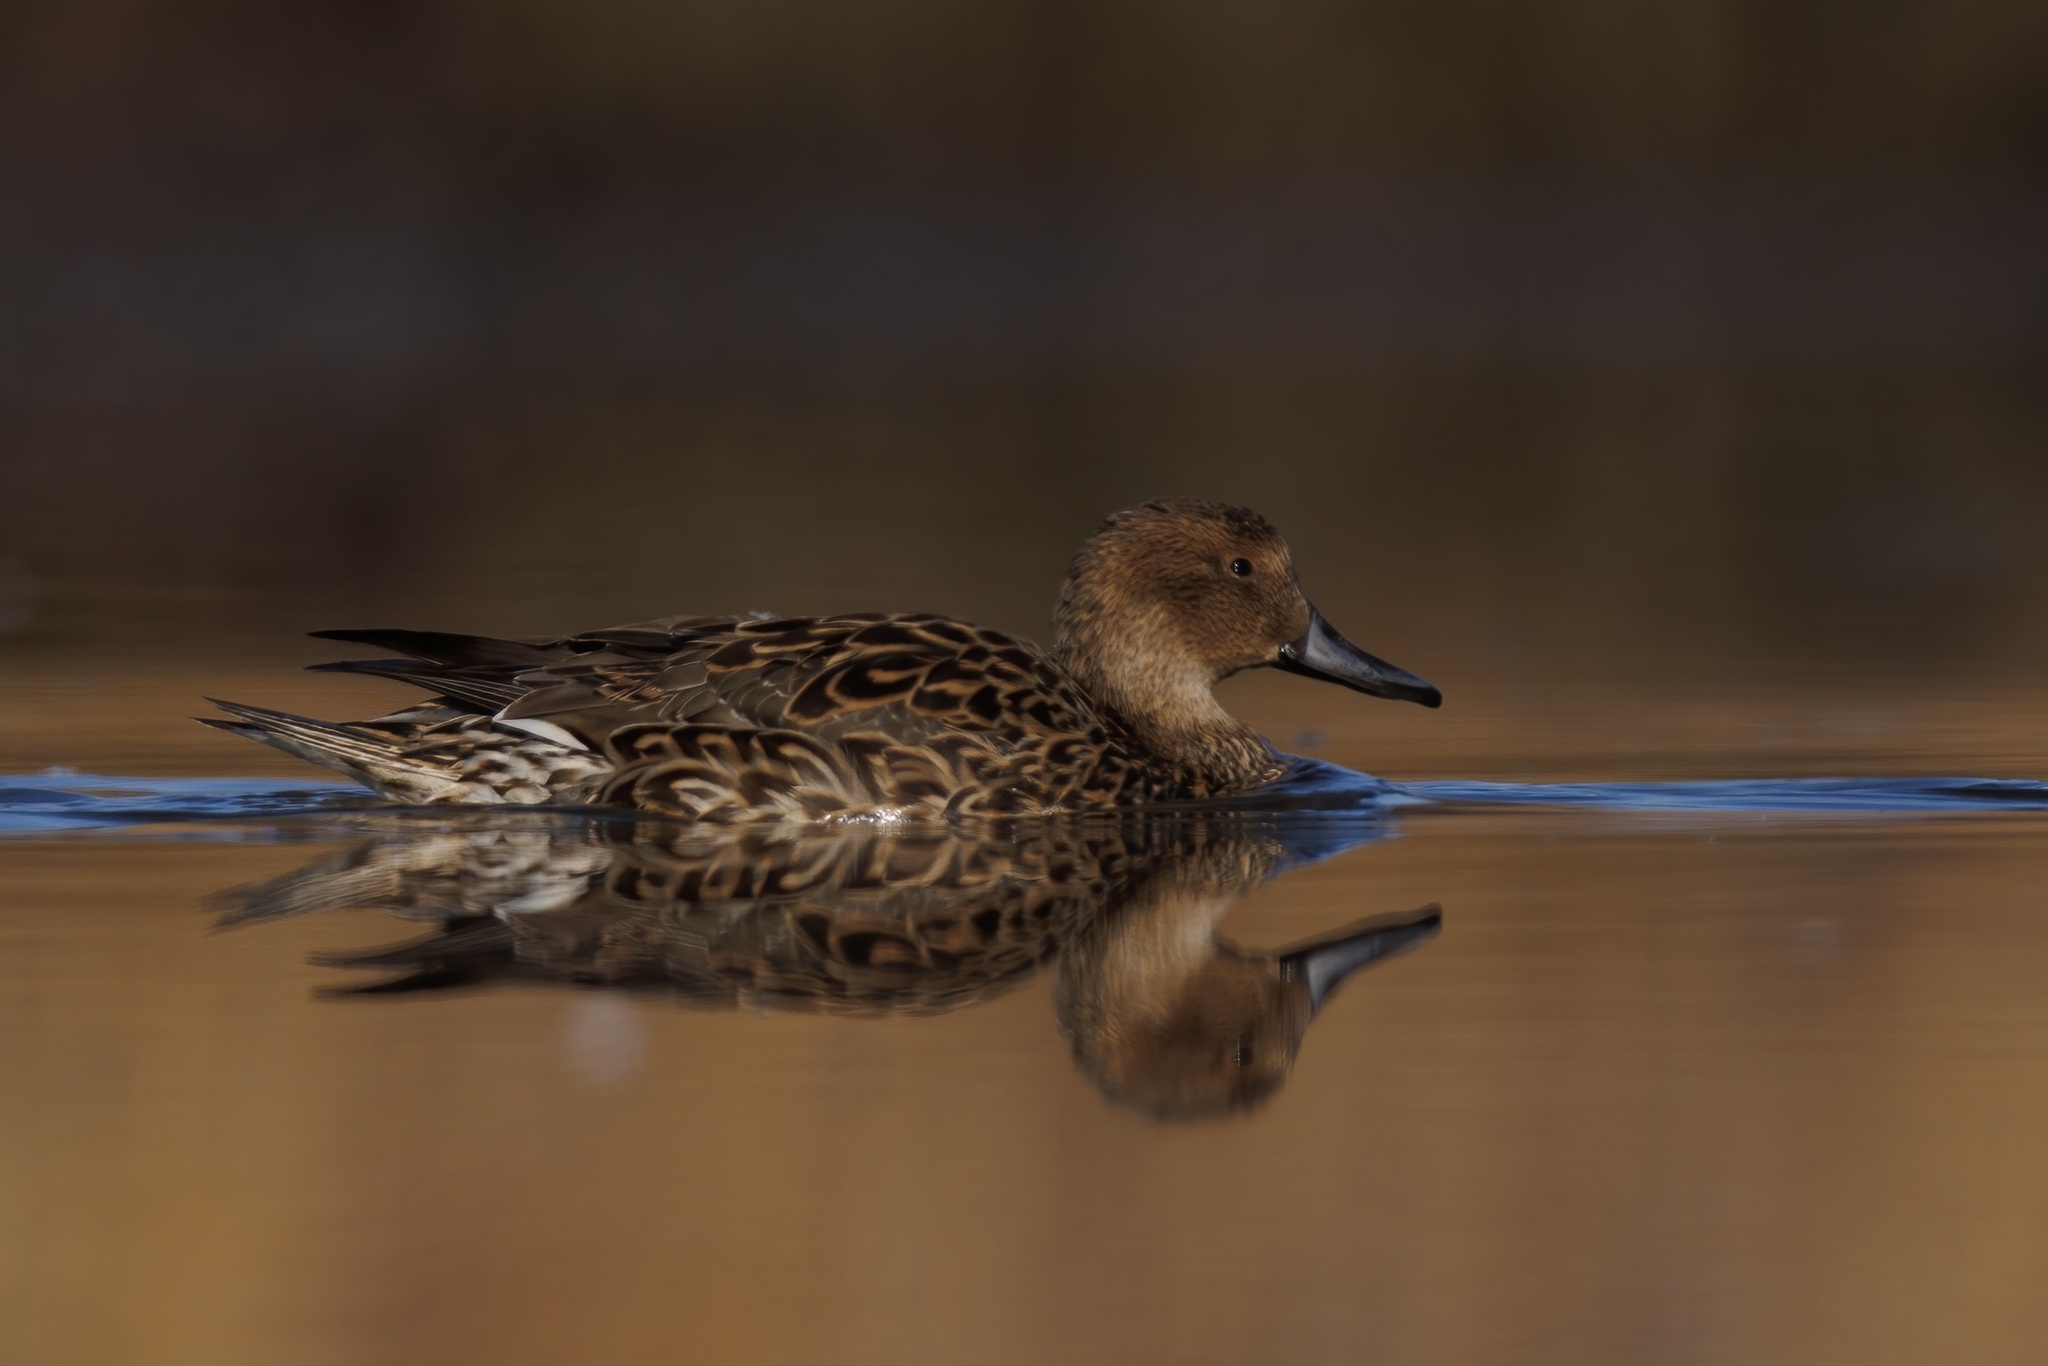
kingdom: Animalia
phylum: Chordata
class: Aves
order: Anseriformes
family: Anatidae
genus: Anas
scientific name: Anas acuta
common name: Northern pintail
